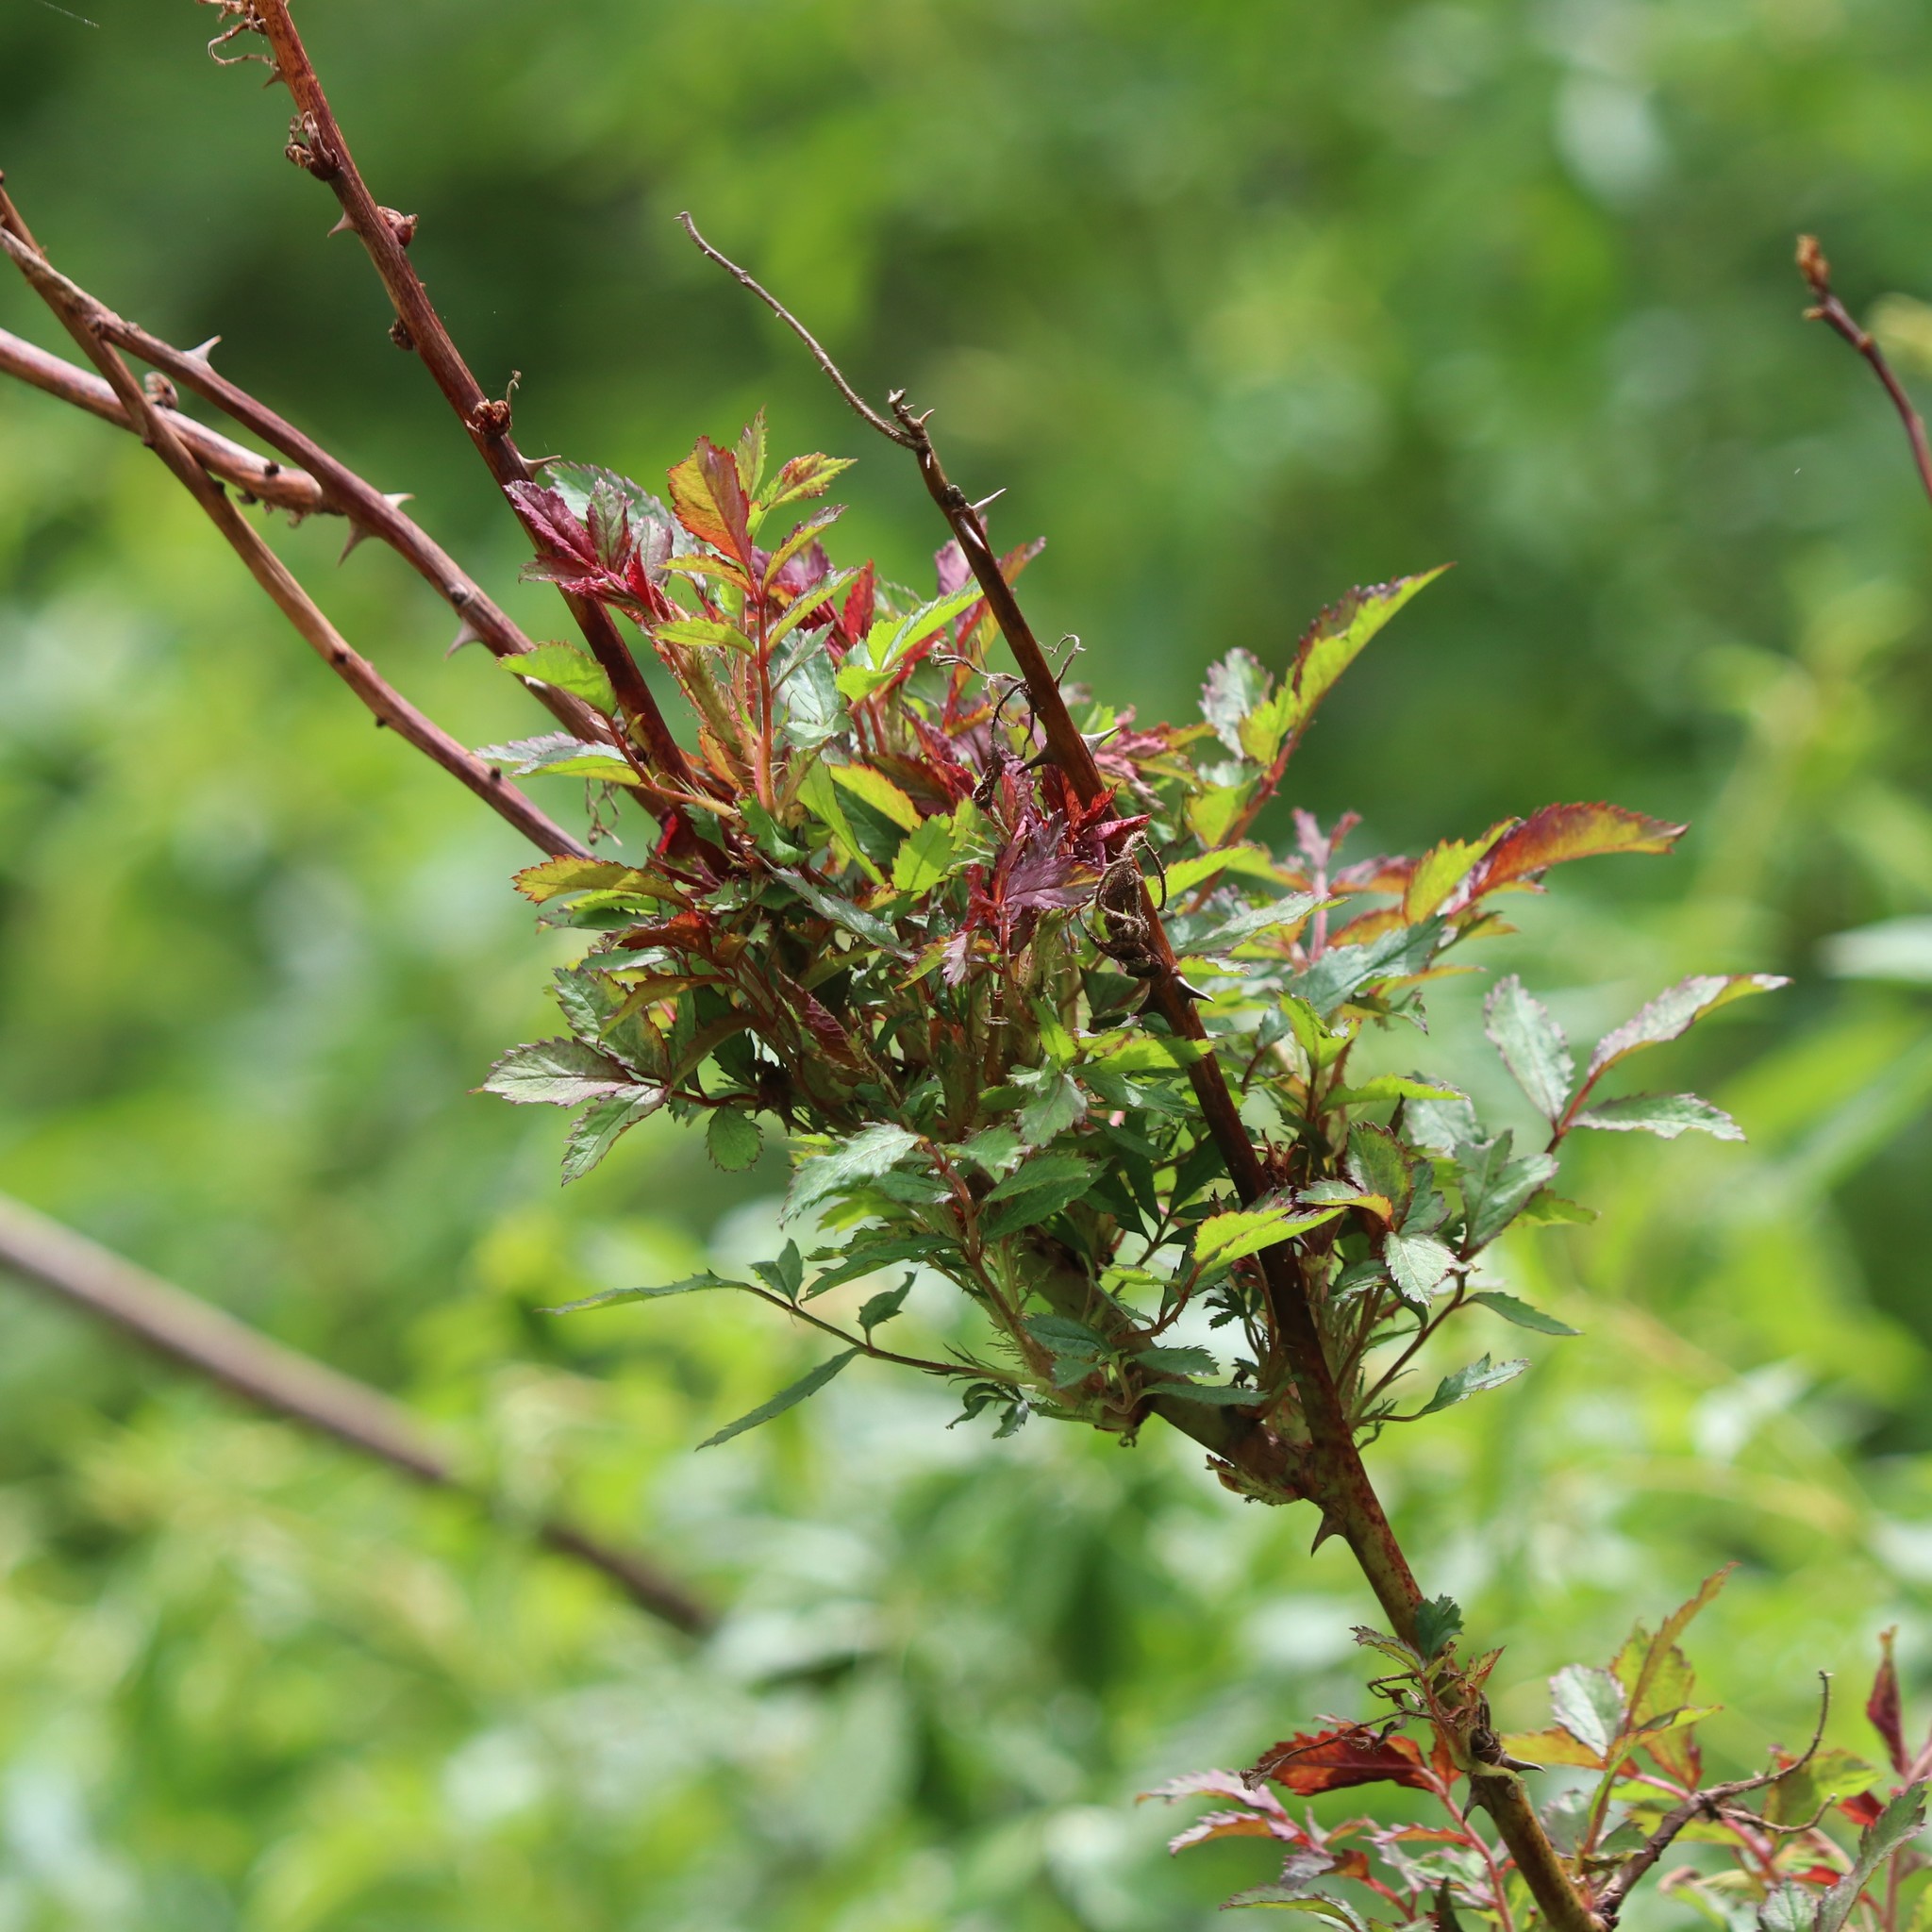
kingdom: Viruses
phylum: Negarnaviricota
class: Ellioviricetes
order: Bunyavirales
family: Fimoviridae
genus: Emaravirus
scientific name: Emaravirus rosae
